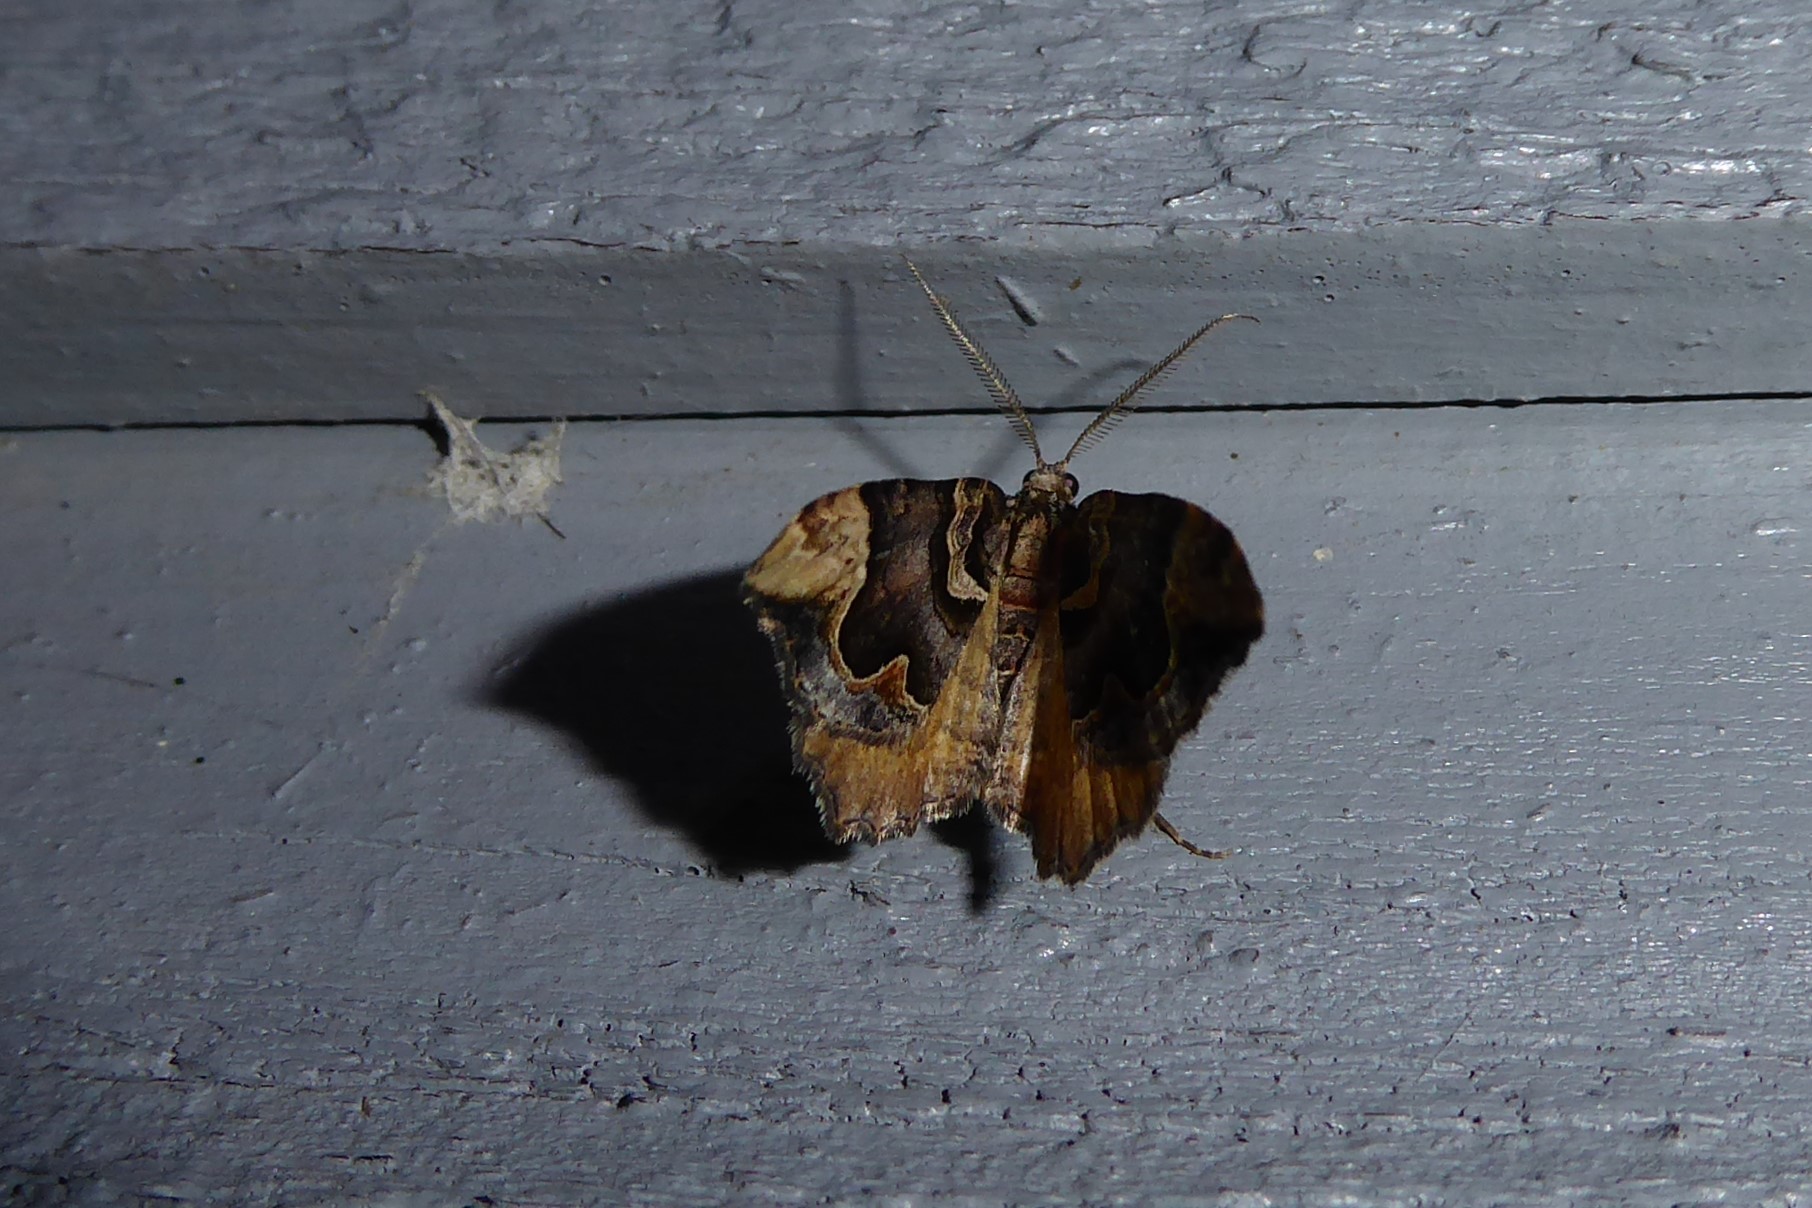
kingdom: Animalia
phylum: Arthropoda
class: Insecta
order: Lepidoptera
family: Geometridae
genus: Asaphodes
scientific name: Asaphodes chlamydota
